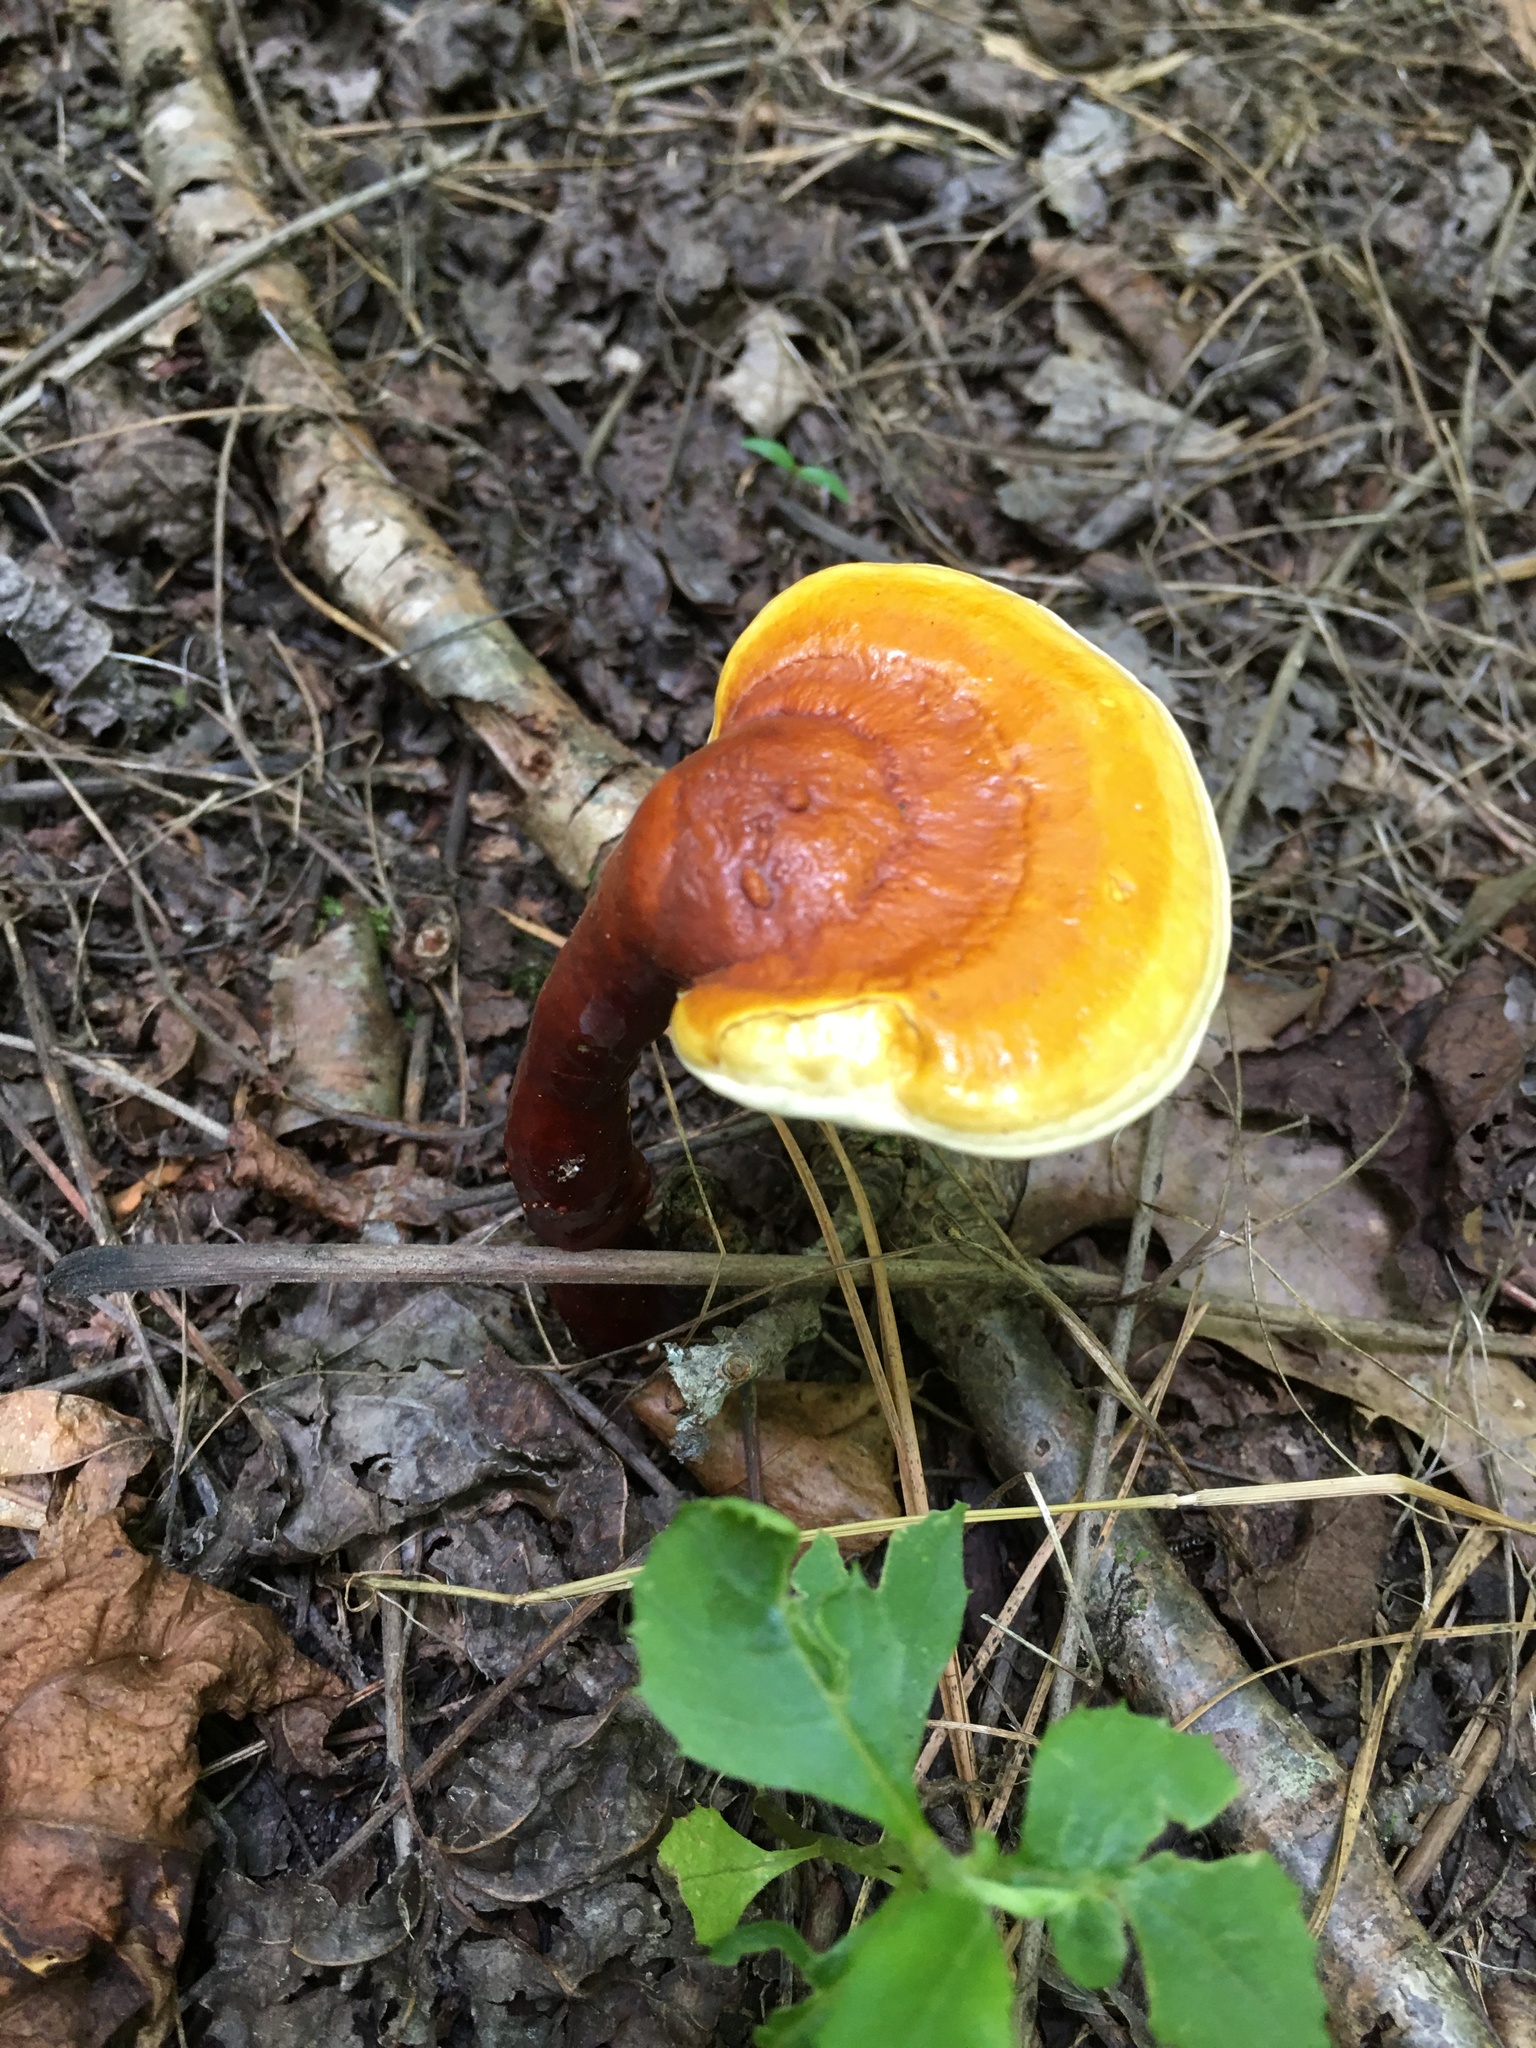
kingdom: Fungi
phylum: Basidiomycota
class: Agaricomycetes
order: Polyporales
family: Polyporaceae
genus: Ganoderma
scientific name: Ganoderma curtisii
